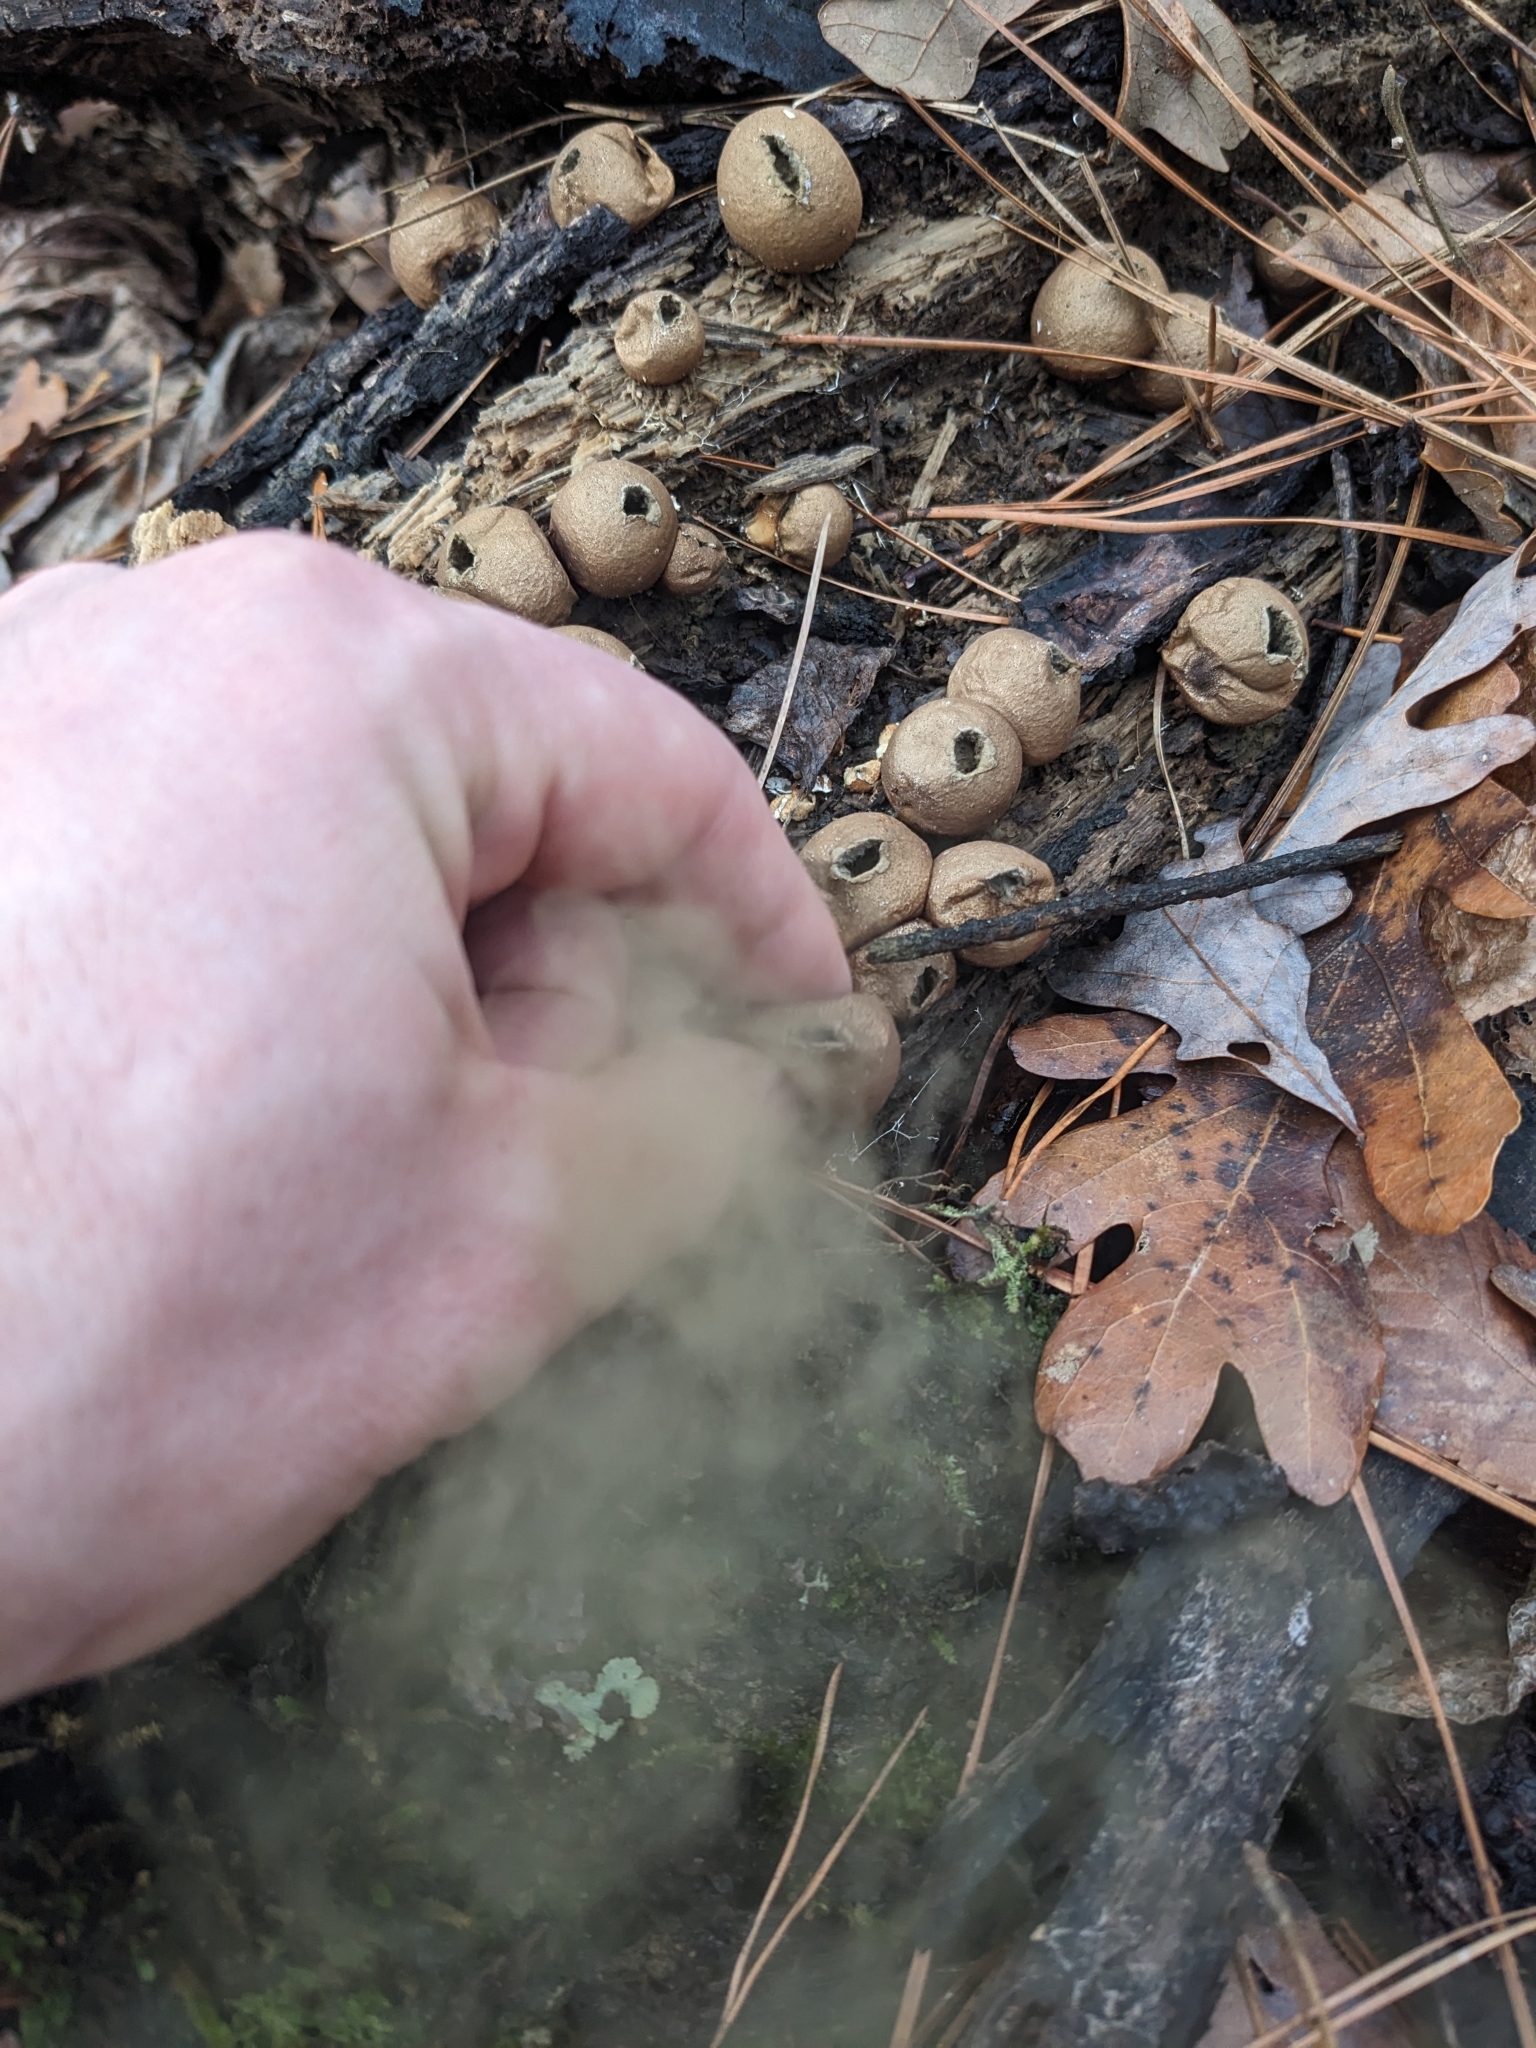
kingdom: Fungi
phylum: Basidiomycota
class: Agaricomycetes
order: Agaricales
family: Lycoperdaceae
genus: Apioperdon
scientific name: Apioperdon pyriforme
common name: Pear-shaped puffball
